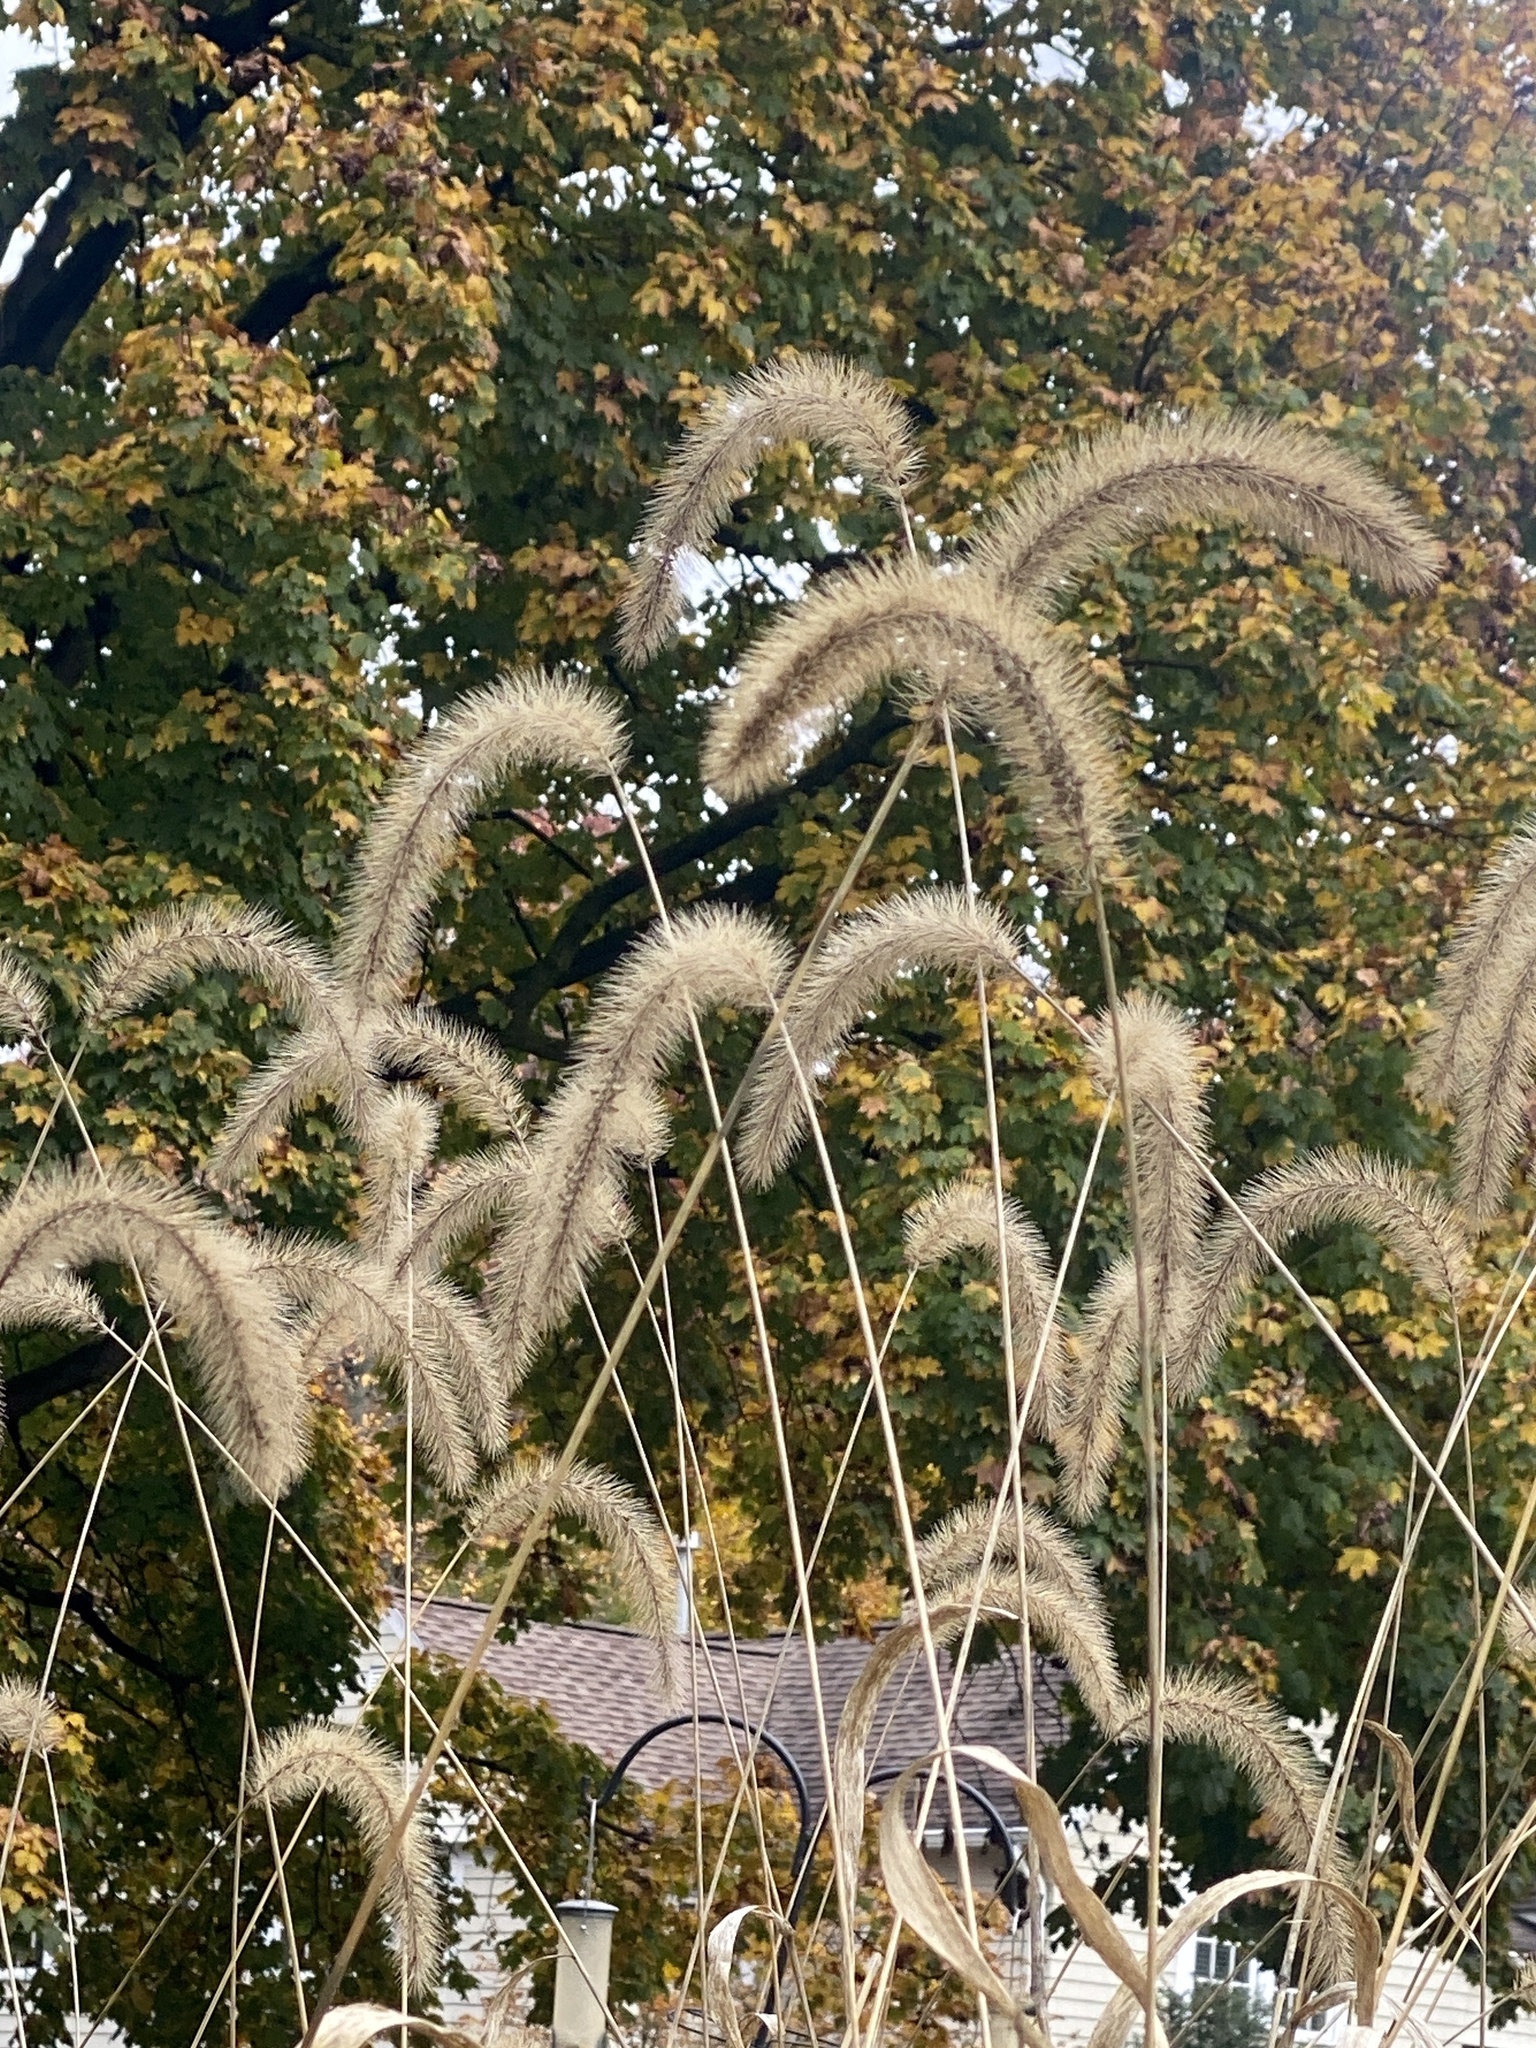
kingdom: Plantae
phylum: Tracheophyta
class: Liliopsida
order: Poales
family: Poaceae
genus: Setaria
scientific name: Setaria faberi
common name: Nodding bristle-grass
